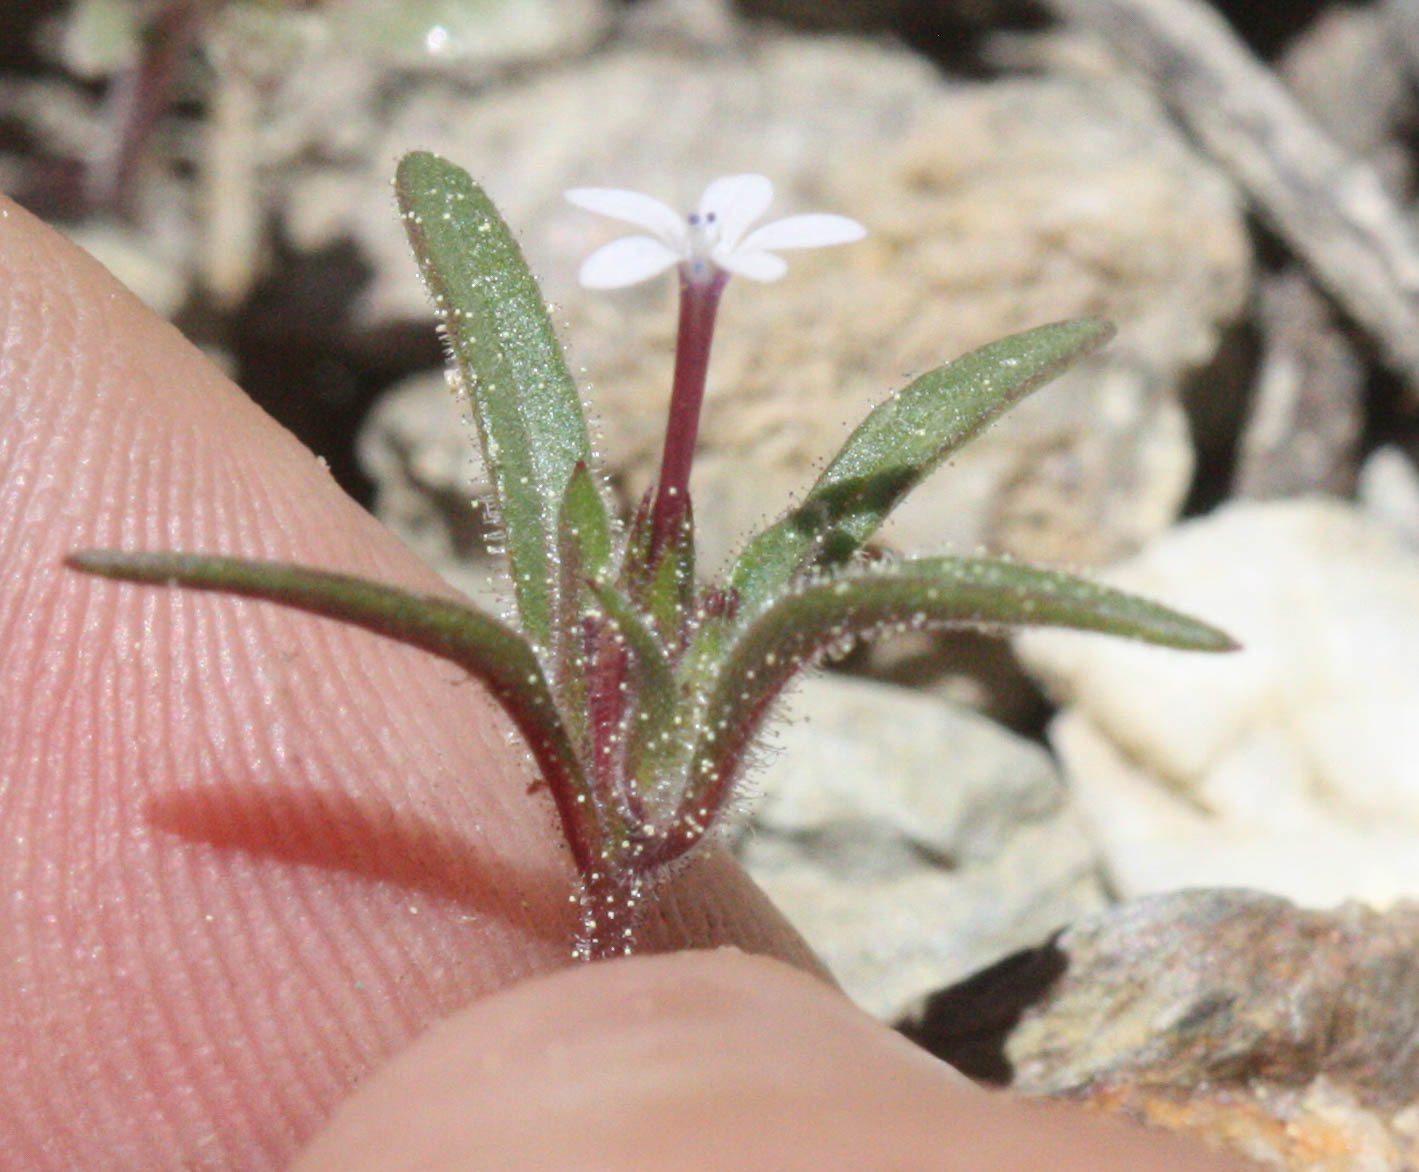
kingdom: Plantae
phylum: Tracheophyta
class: Magnoliopsida
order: Ericales
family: Polemoniaceae
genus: Collomia
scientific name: Collomia tinctoria
